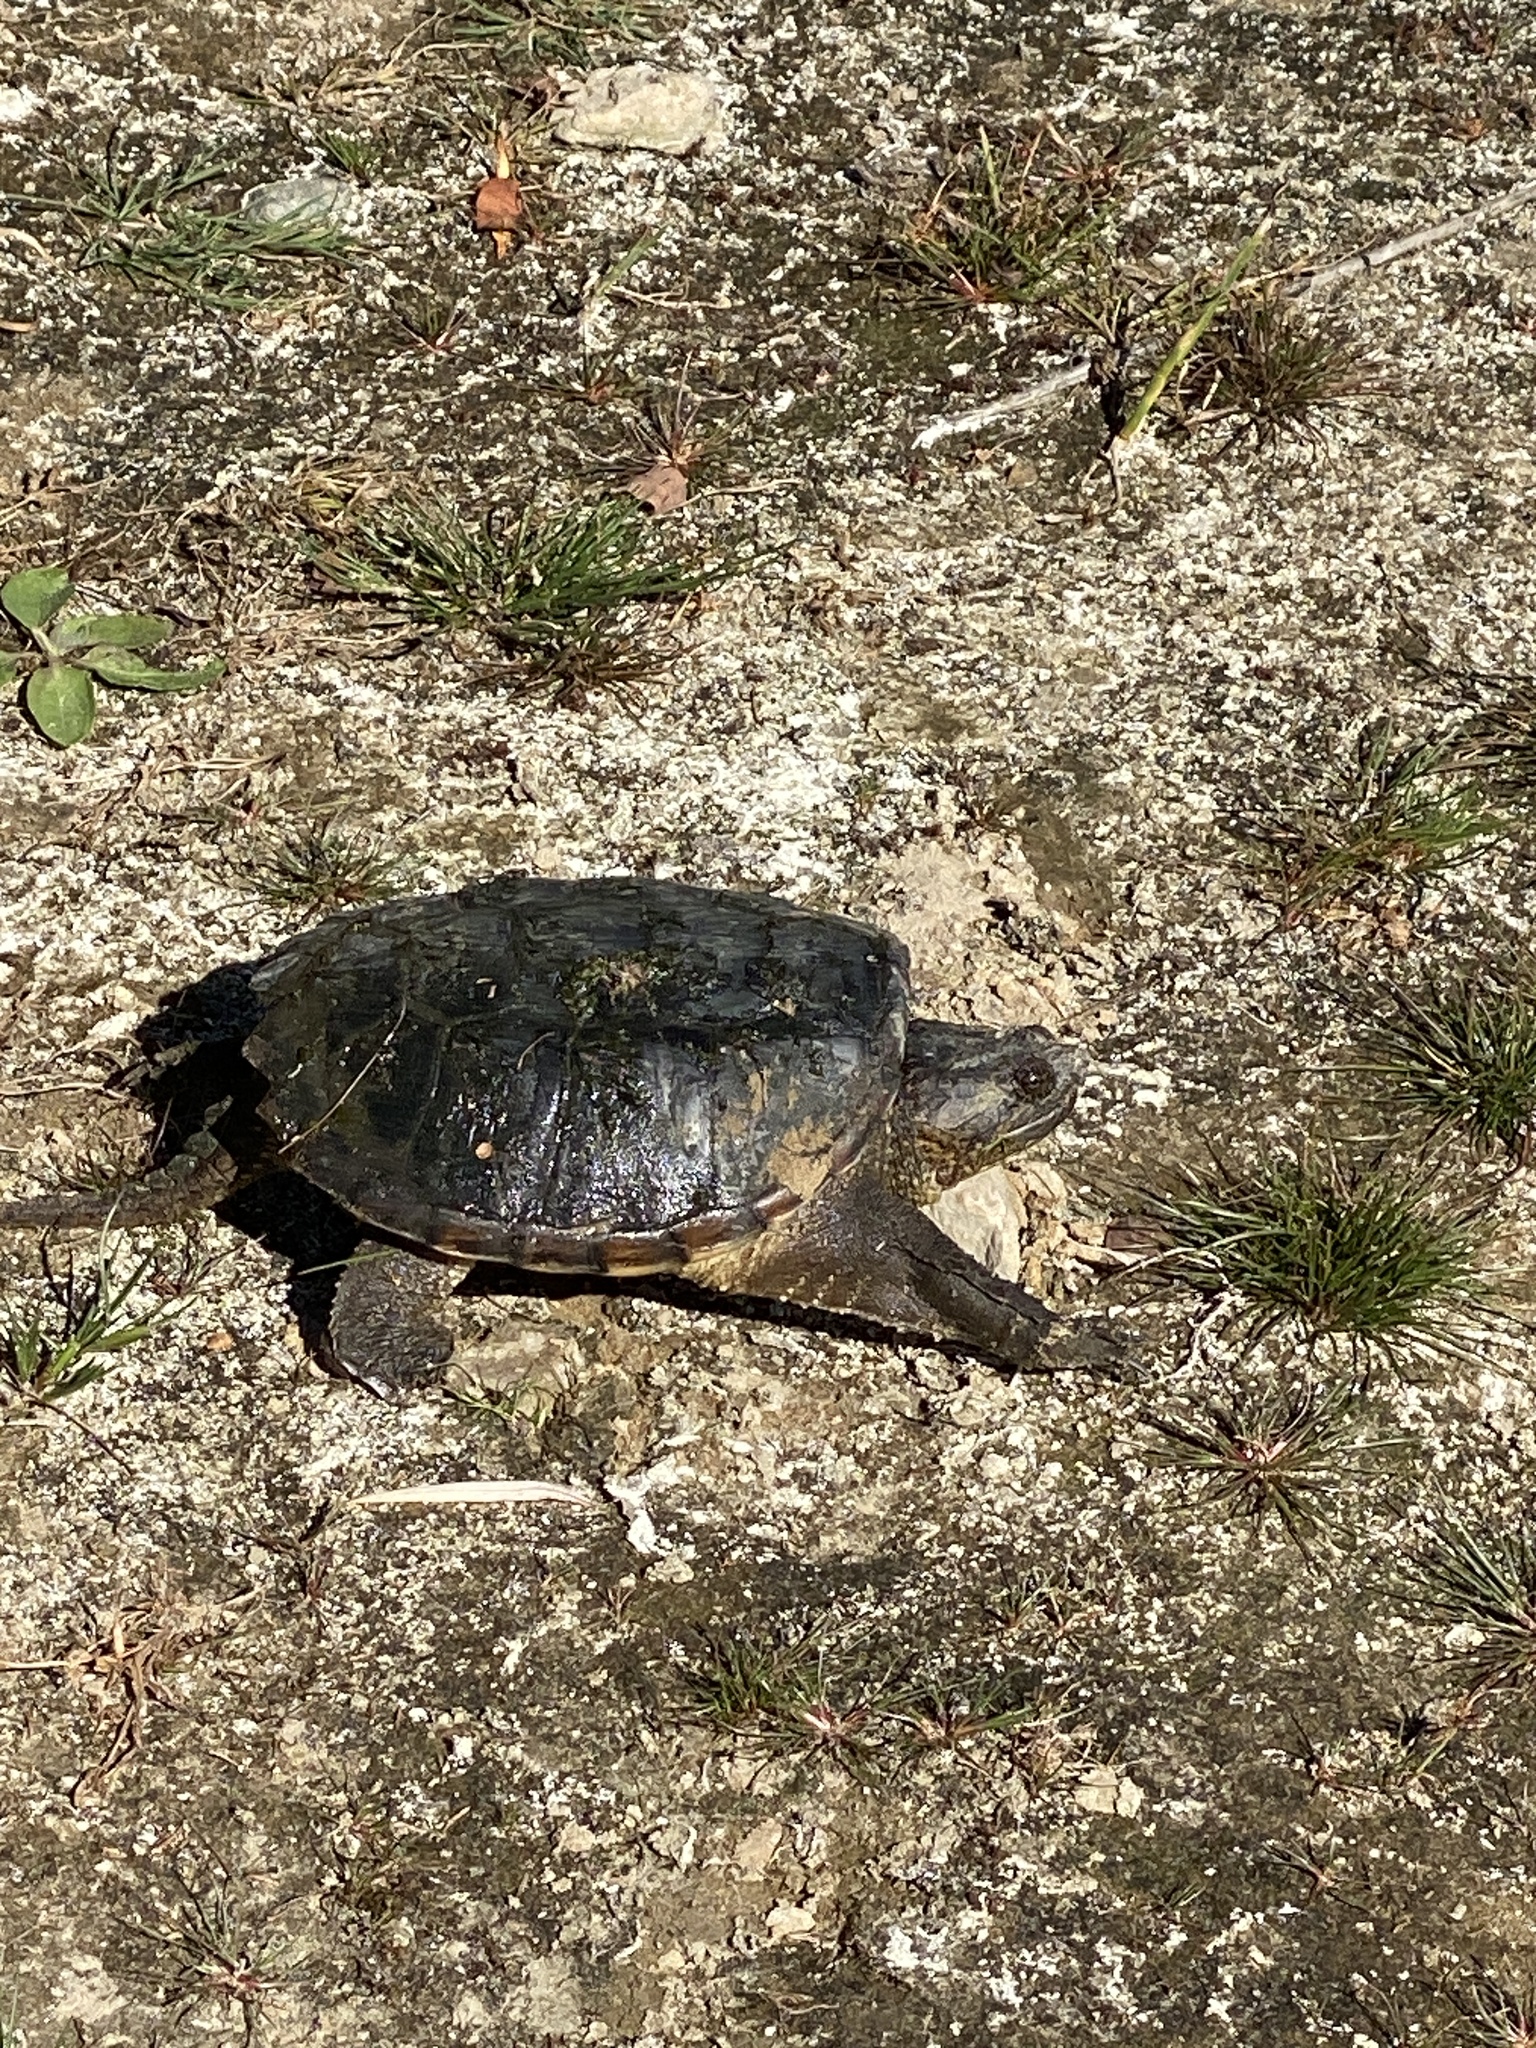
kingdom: Animalia
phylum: Chordata
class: Testudines
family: Chelydridae
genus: Chelydra
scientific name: Chelydra serpentina
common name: Common snapping turtle
